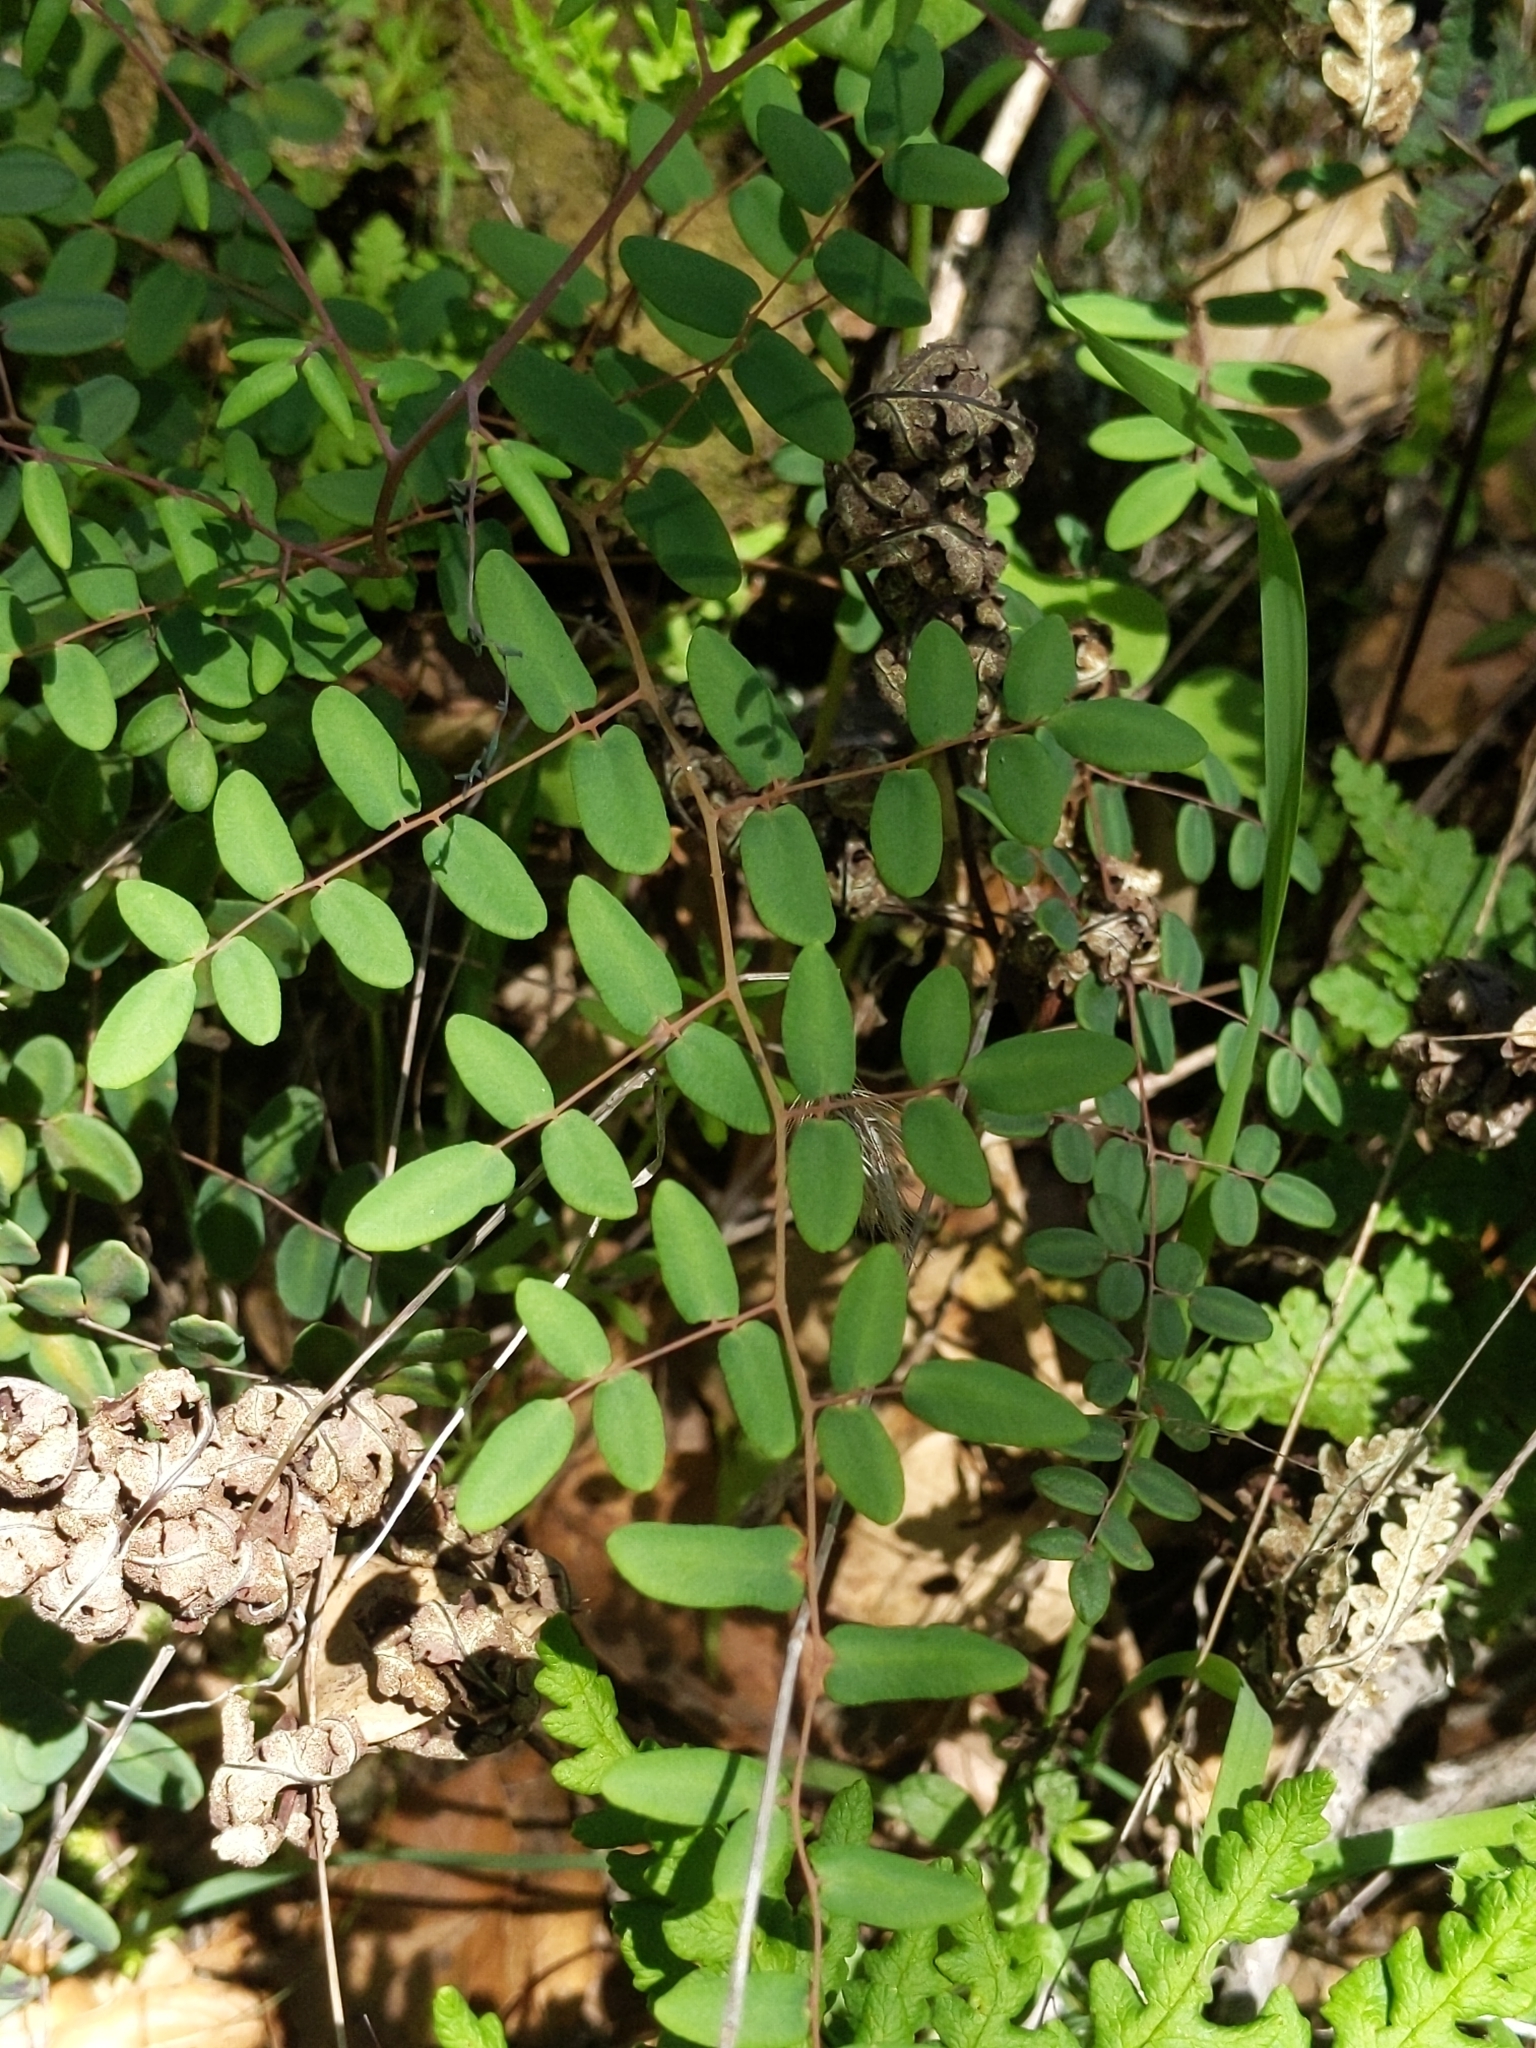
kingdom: Plantae
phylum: Tracheophyta
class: Polypodiopsida
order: Polypodiales
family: Pteridaceae
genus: Pellaea
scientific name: Pellaea andromedifolia
